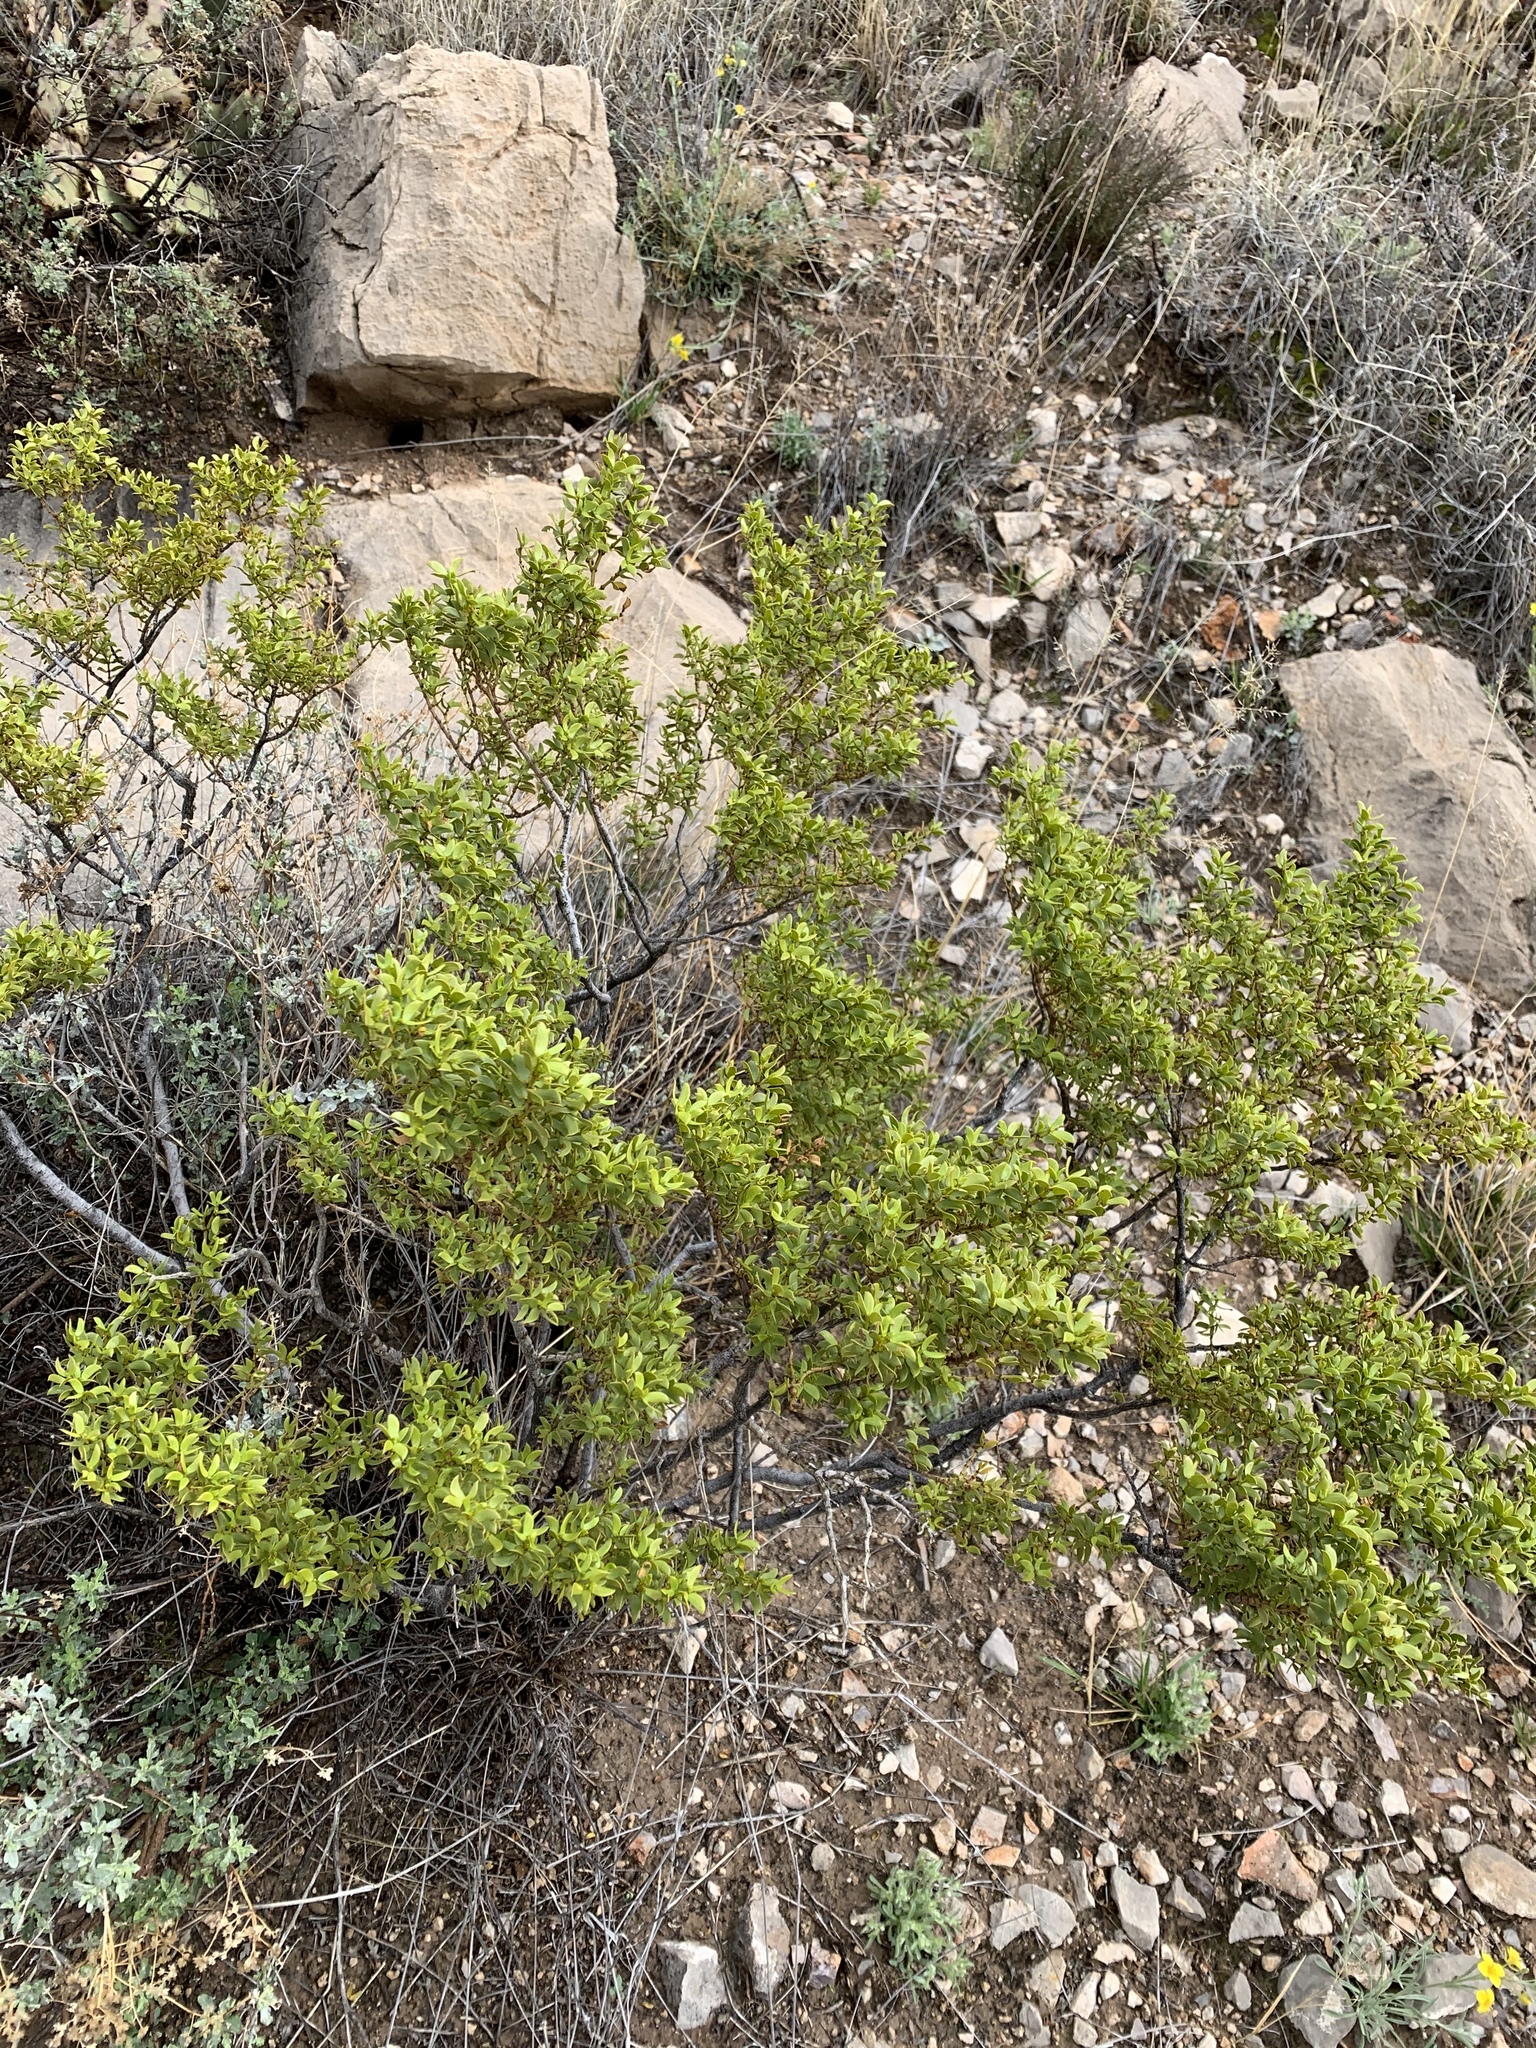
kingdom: Plantae
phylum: Tracheophyta
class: Magnoliopsida
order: Zygophyllales
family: Zygophyllaceae
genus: Larrea
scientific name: Larrea tridentata
